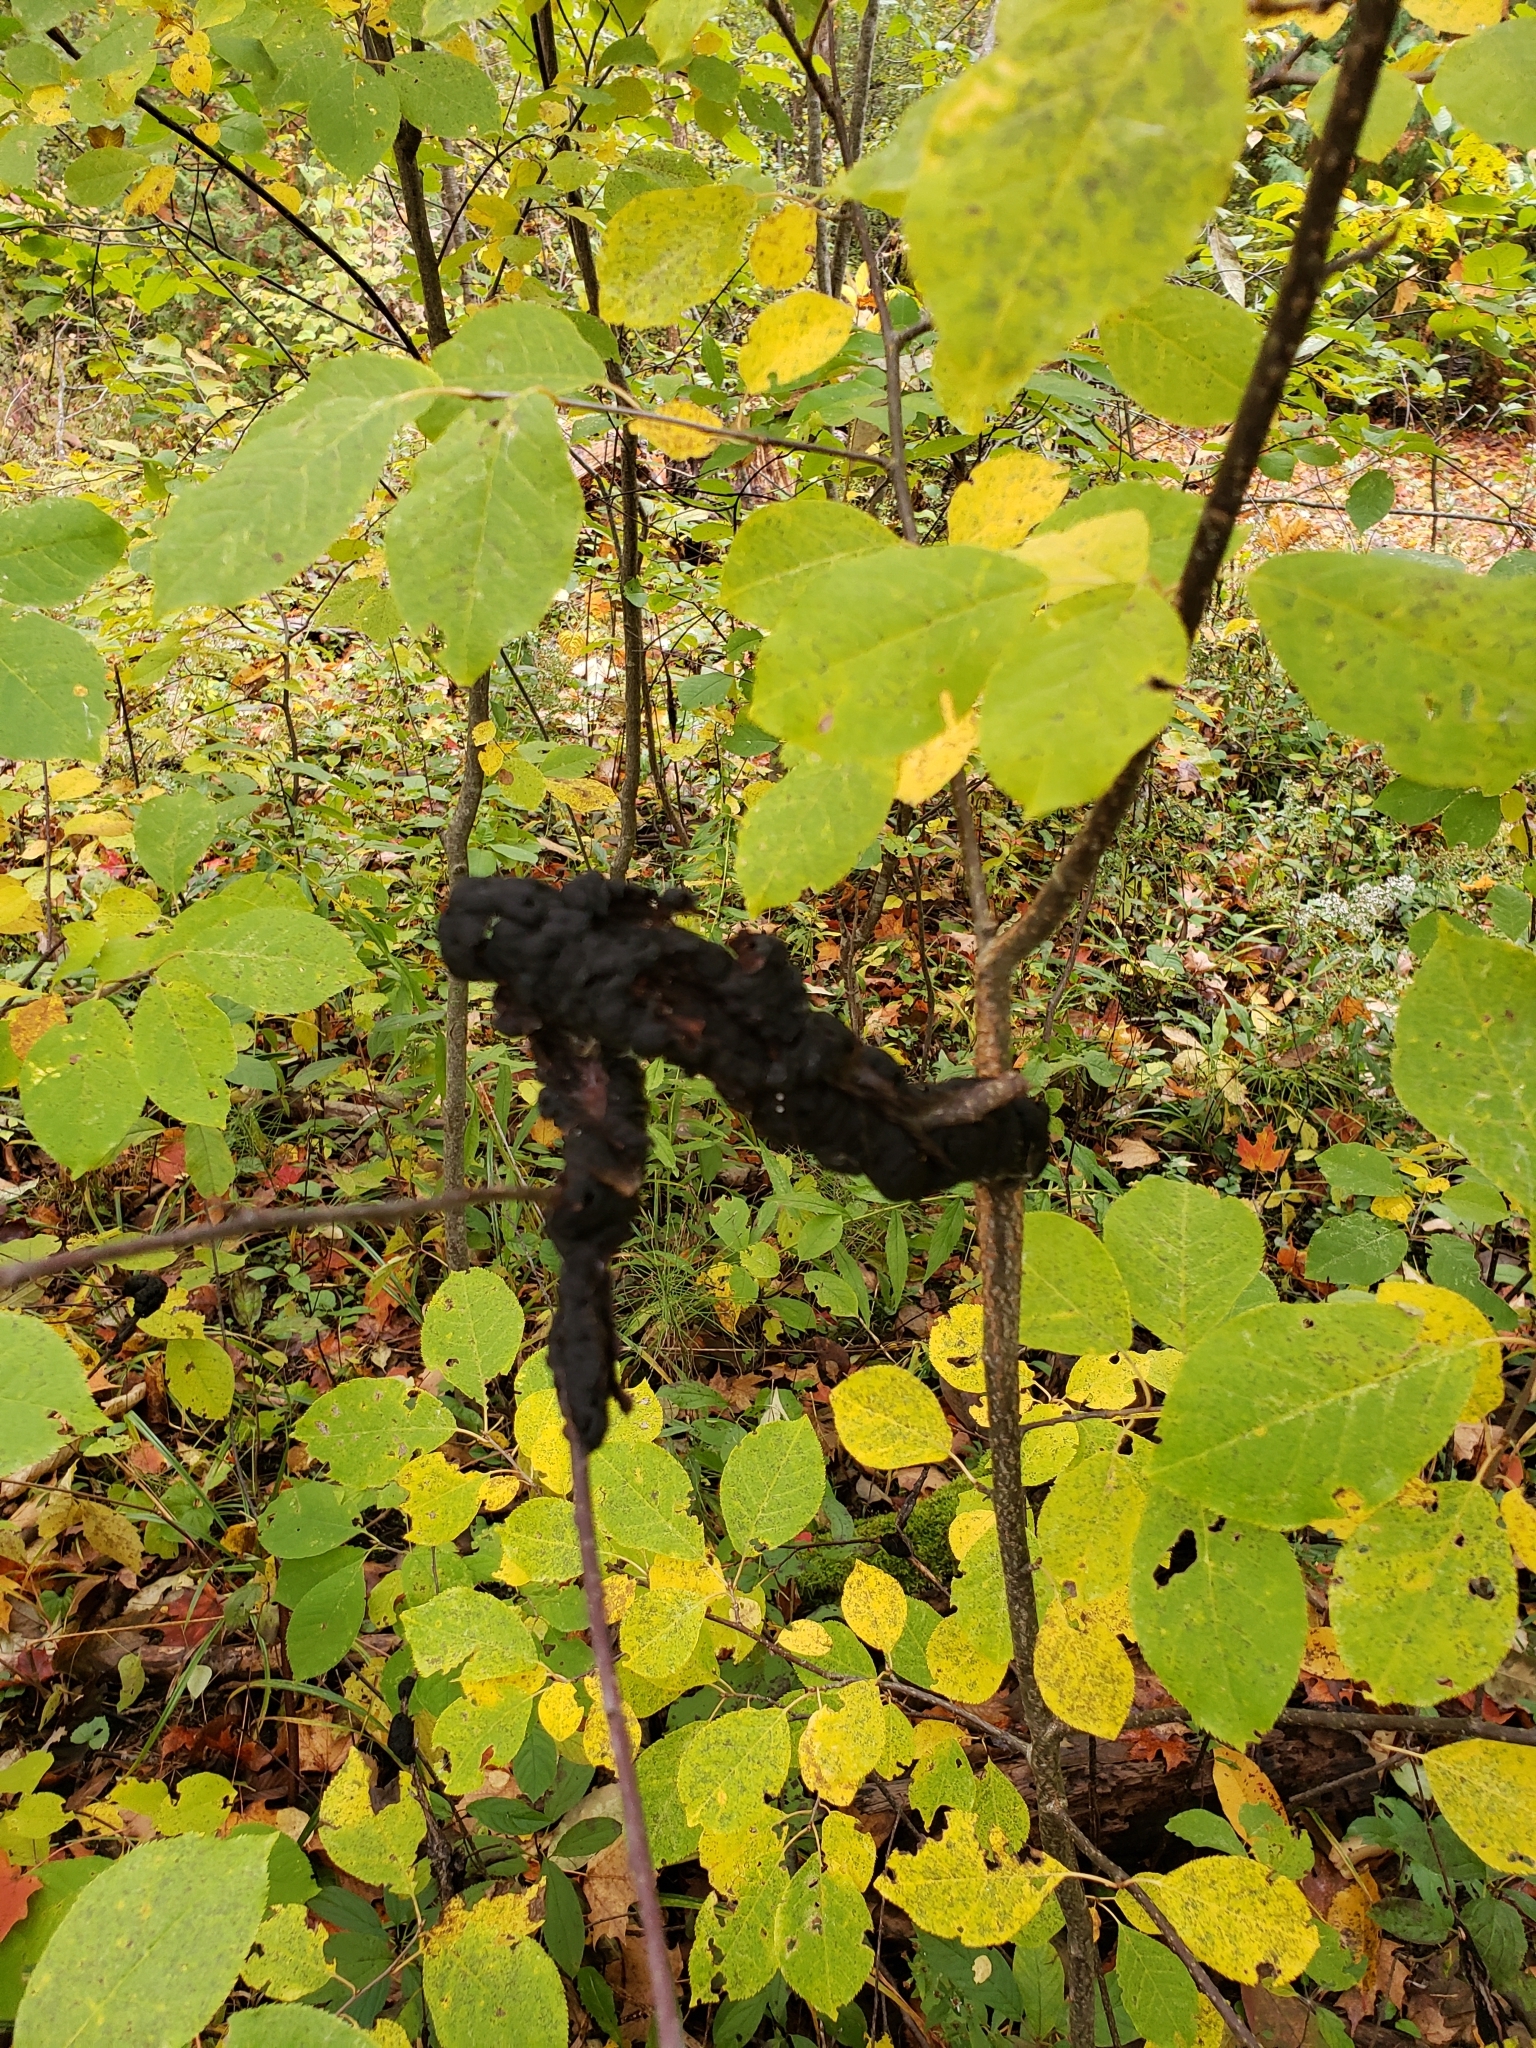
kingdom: Fungi
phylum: Ascomycota
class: Dothideomycetes
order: Venturiales
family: Venturiaceae
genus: Apiosporina
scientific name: Apiosporina morbosa
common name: Black knot
